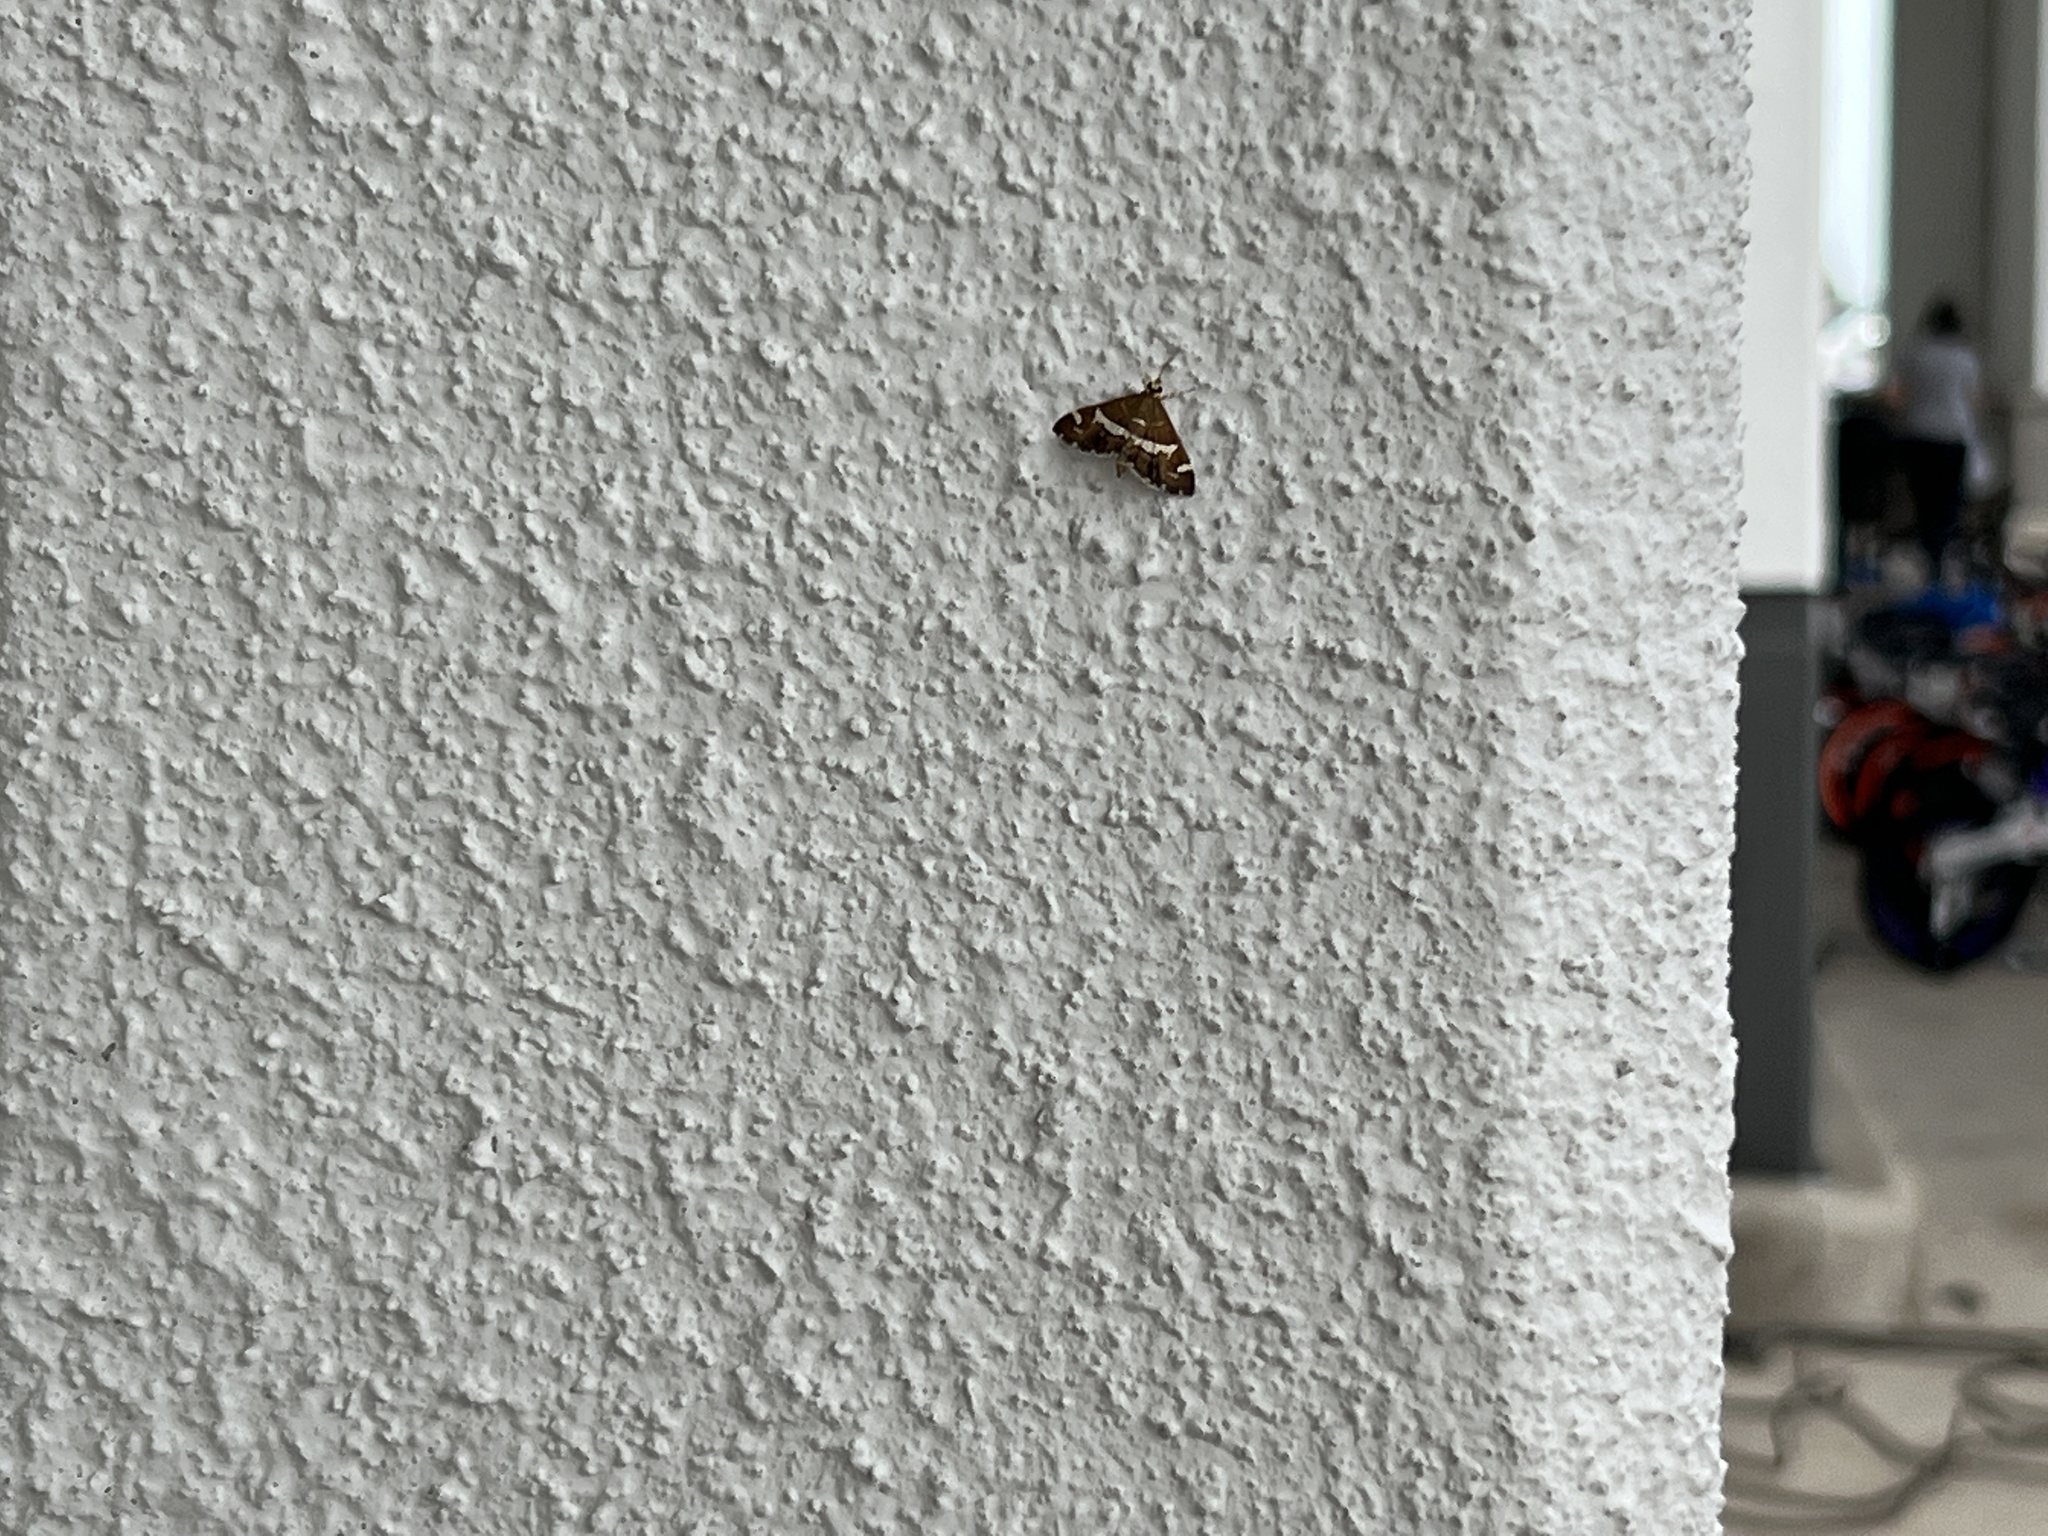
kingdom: Animalia
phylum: Arthropoda
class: Insecta
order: Lepidoptera
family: Crambidae
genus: Spoladea
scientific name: Spoladea recurvalis
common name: Beet webworm moth
